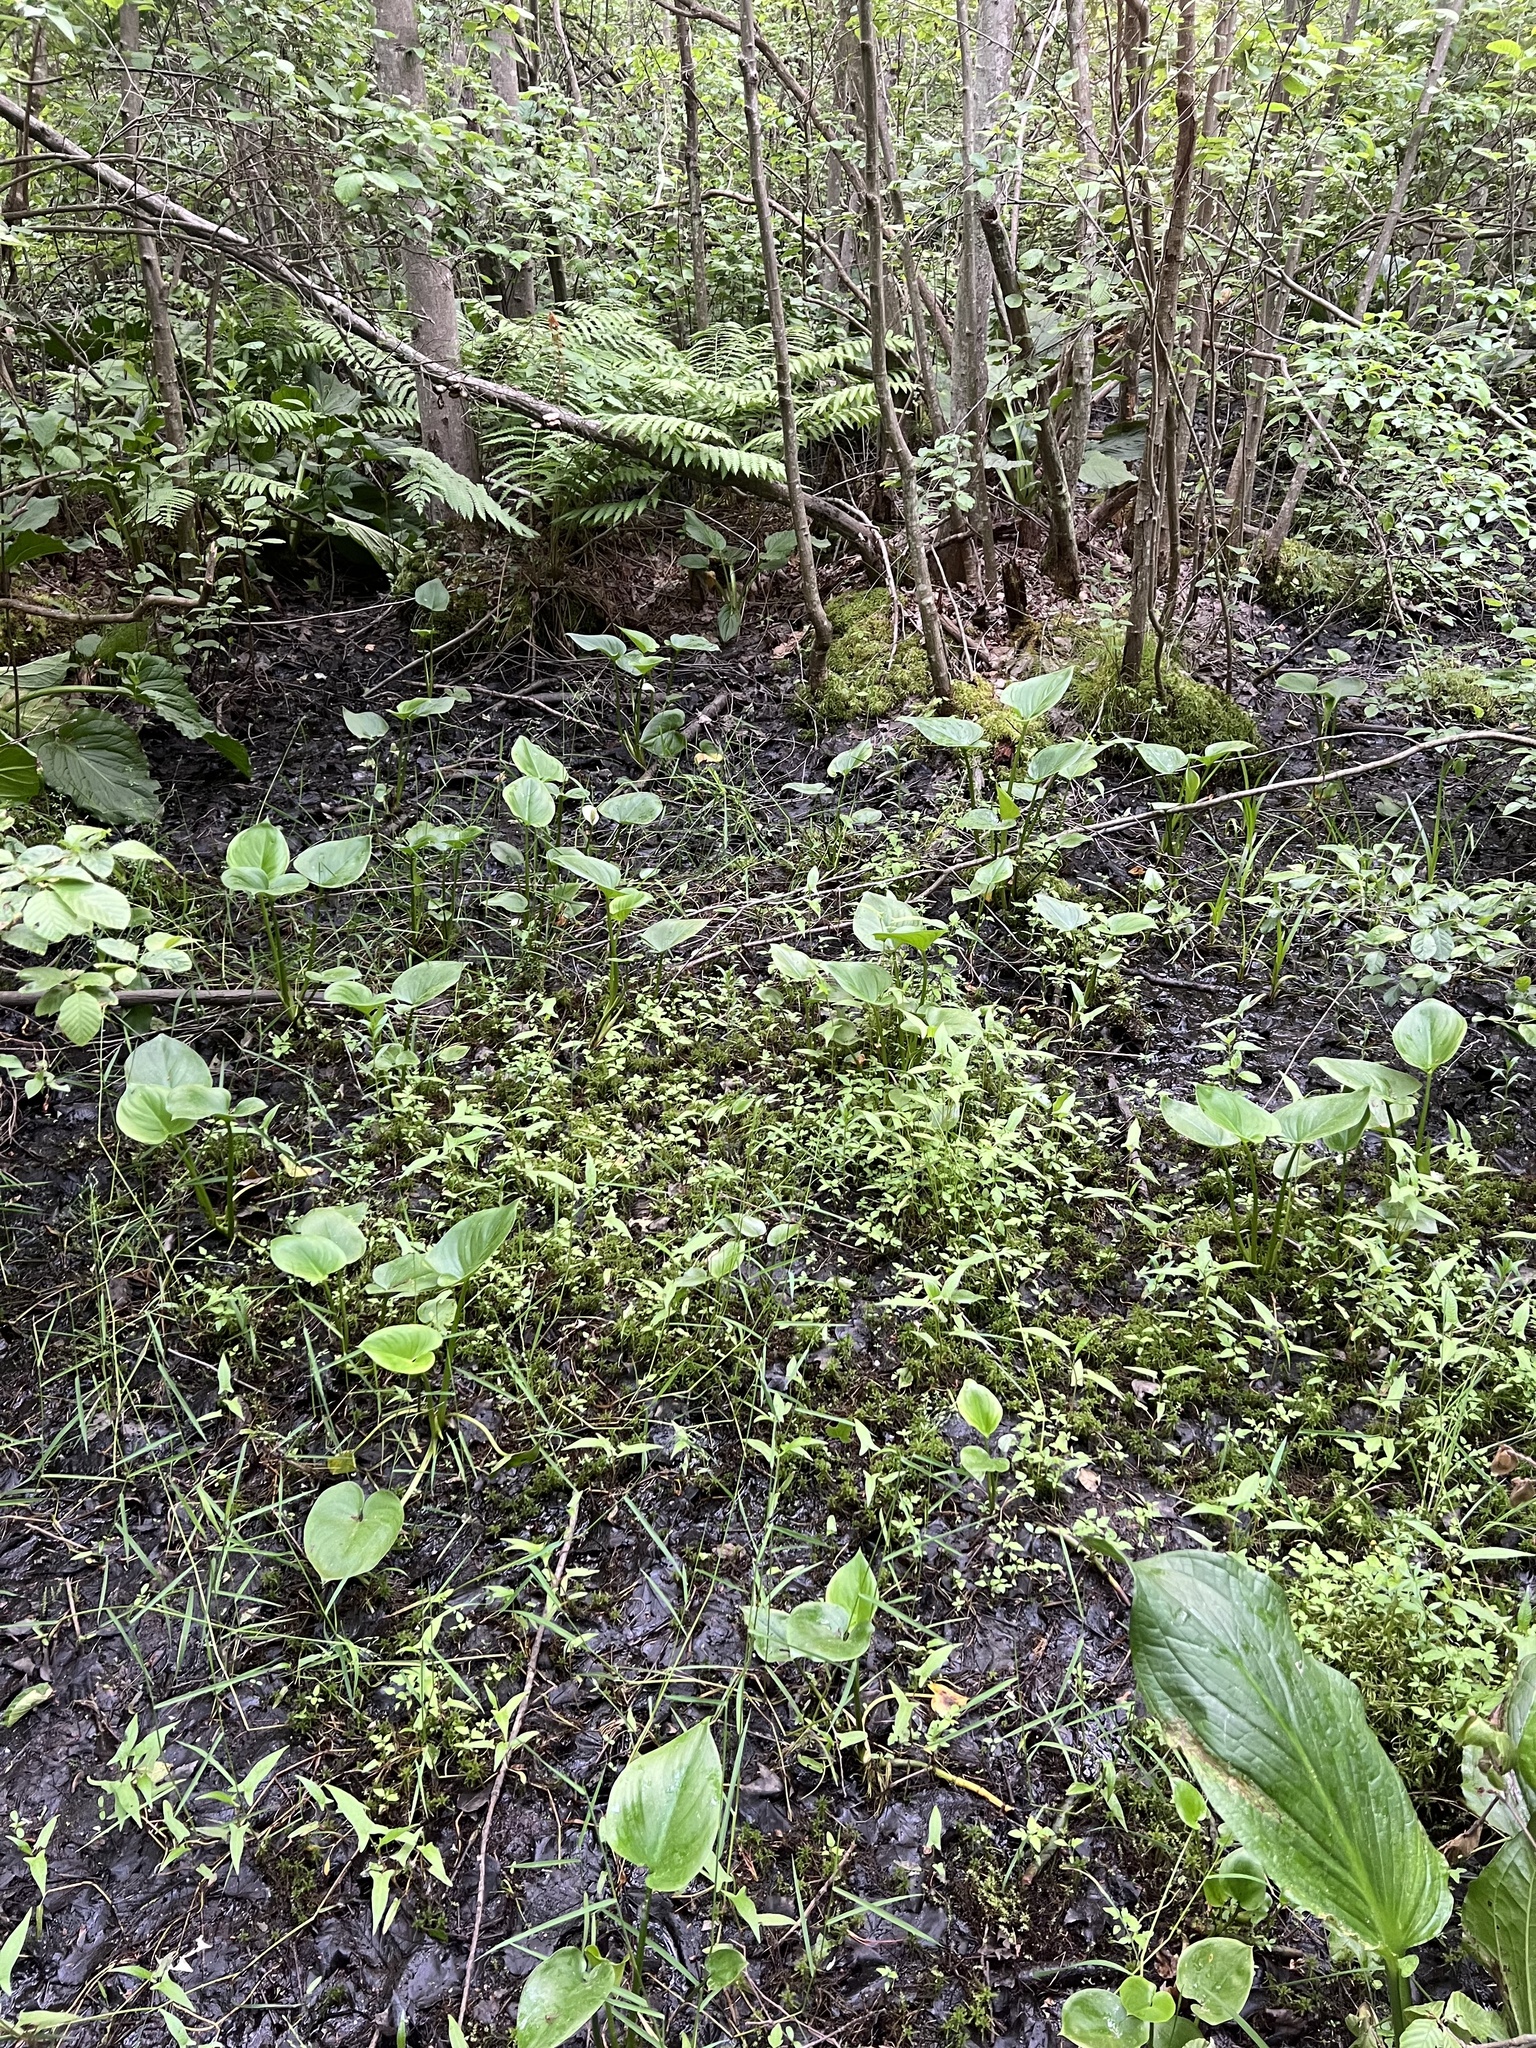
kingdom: Plantae
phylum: Tracheophyta
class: Liliopsida
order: Alismatales
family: Araceae
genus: Calla
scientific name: Calla palustris
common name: Bog arum
